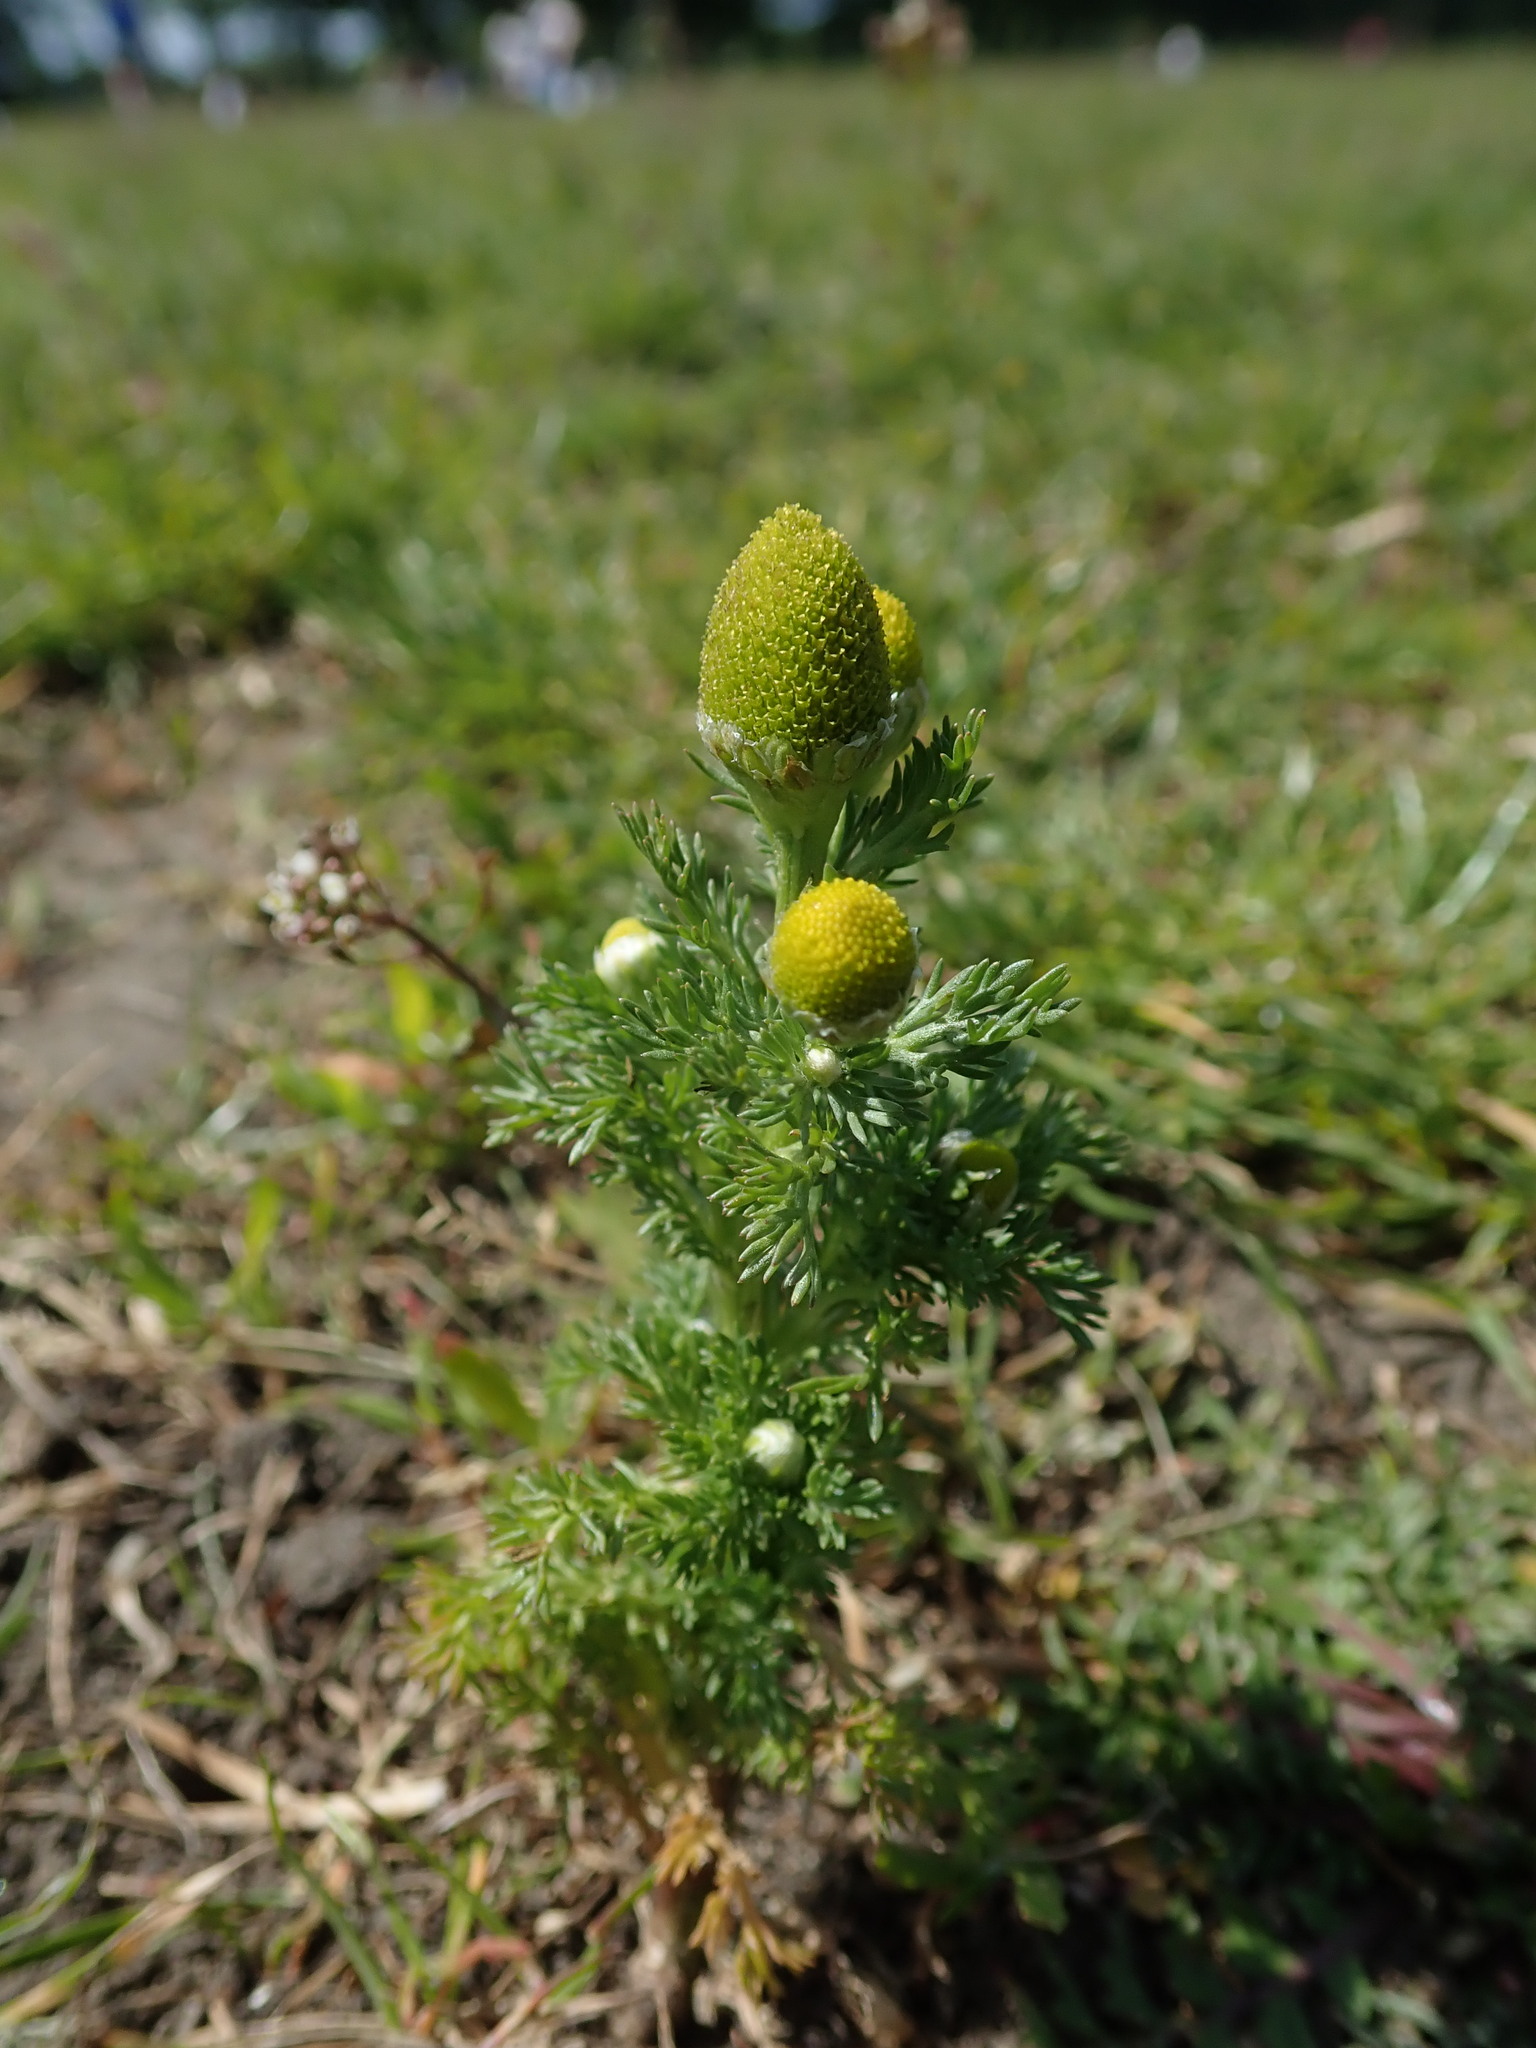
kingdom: Plantae
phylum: Tracheophyta
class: Magnoliopsida
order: Asterales
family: Asteraceae
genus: Matricaria
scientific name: Matricaria discoidea
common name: Disc mayweed
